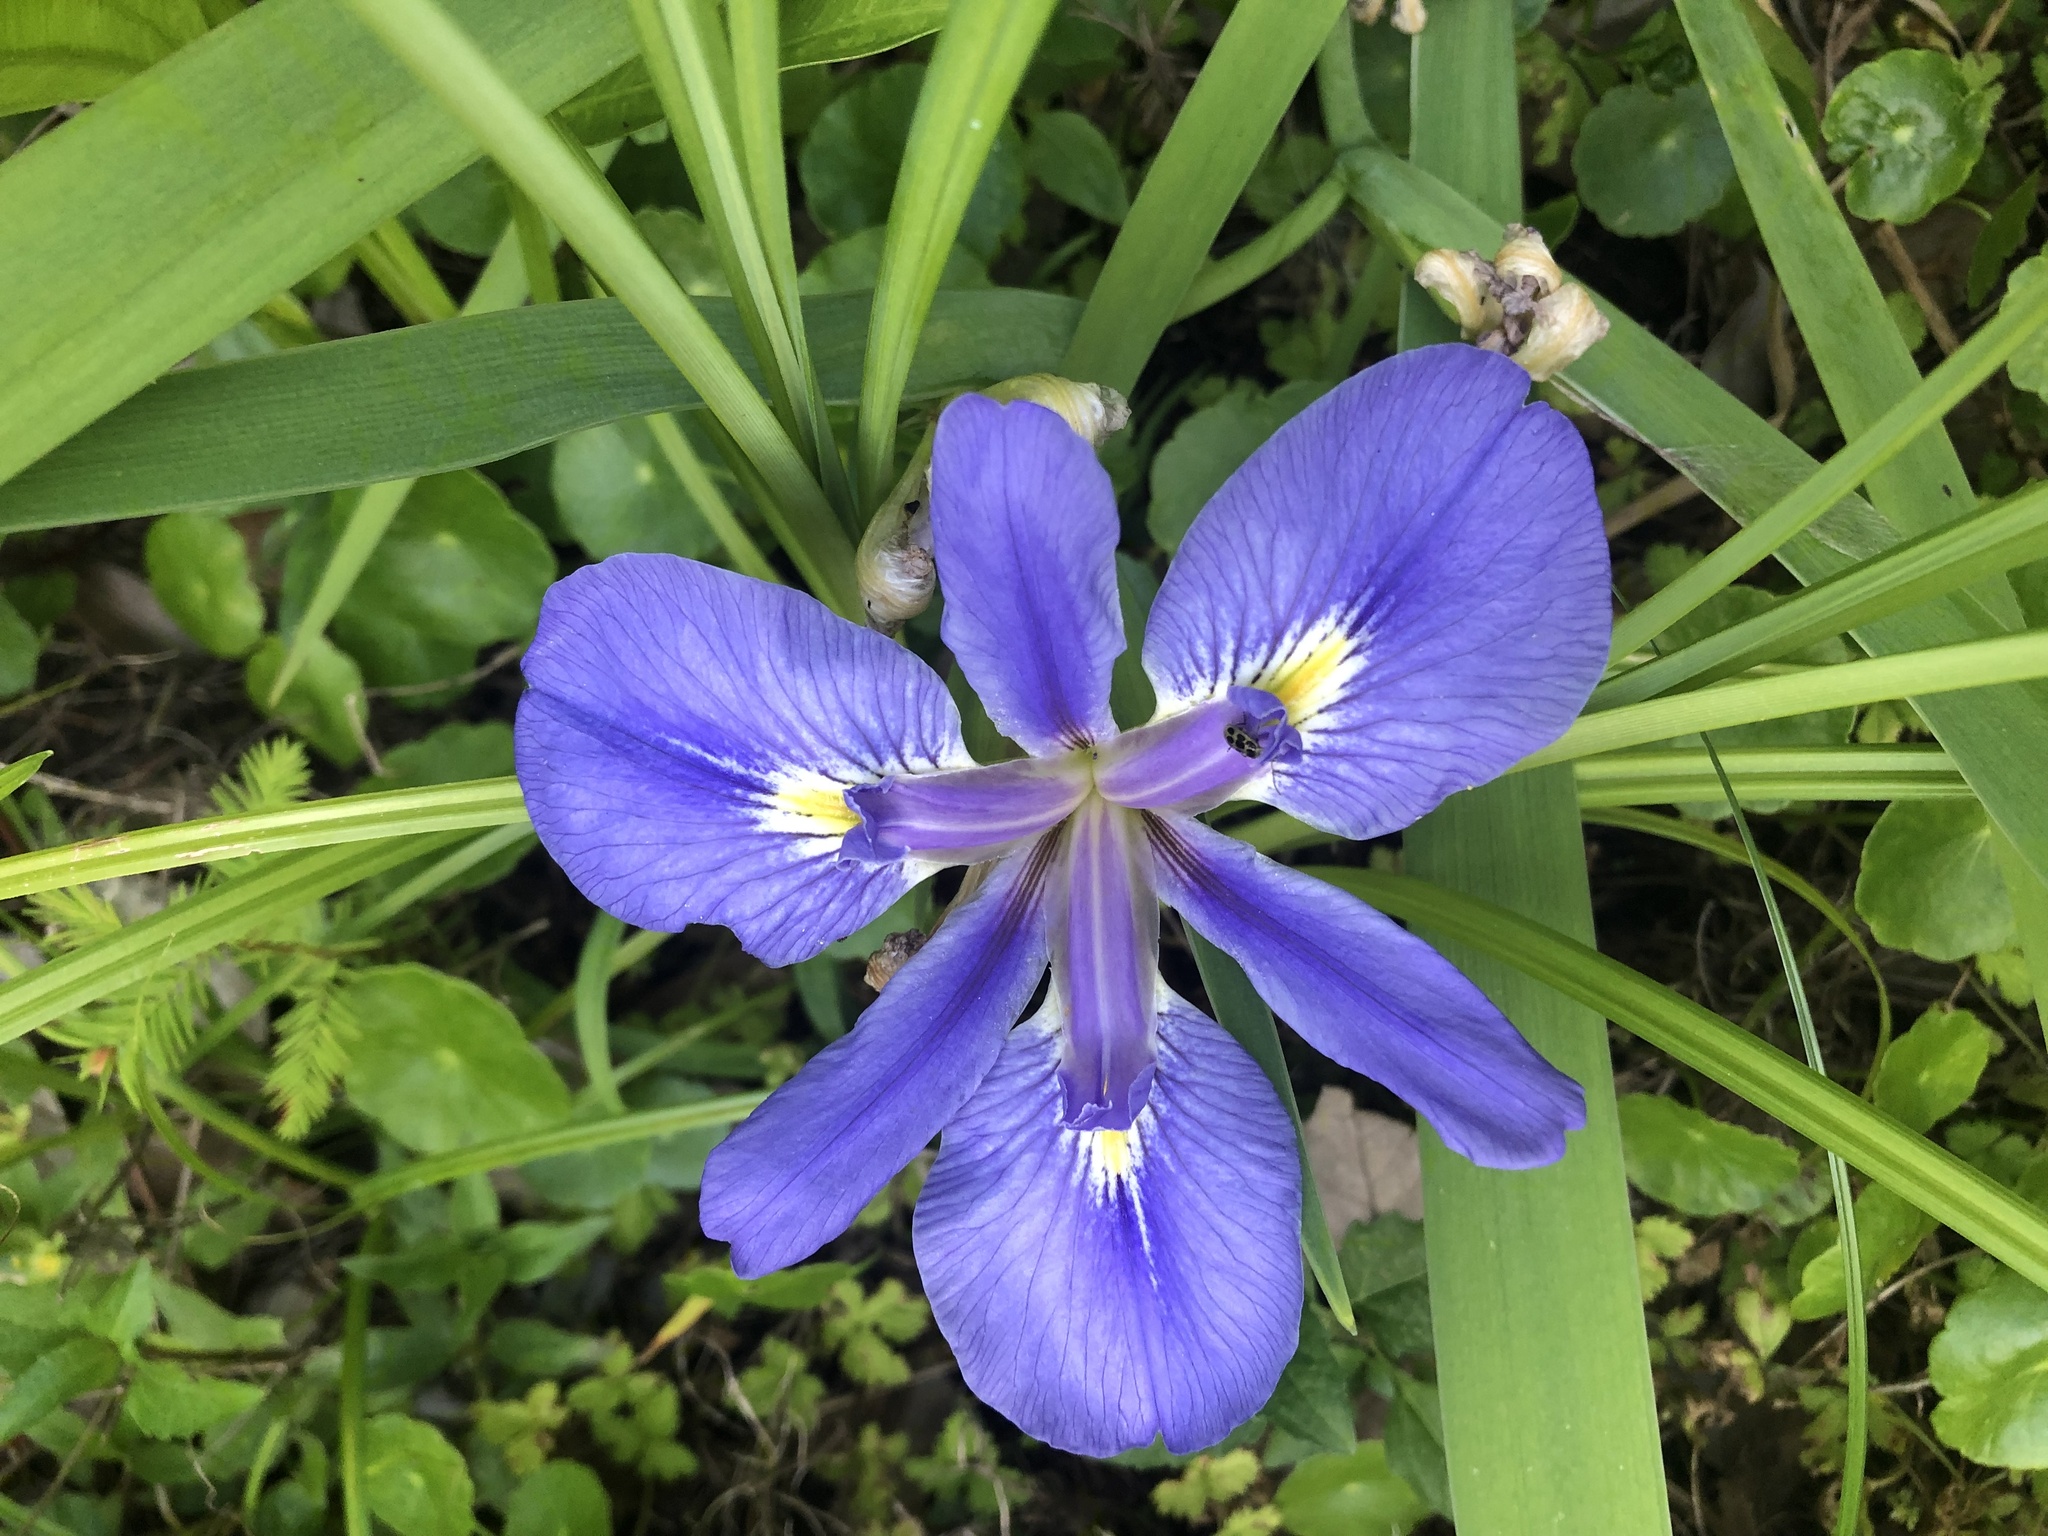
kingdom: Plantae
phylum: Tracheophyta
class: Liliopsida
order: Asparagales
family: Iridaceae
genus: Iris
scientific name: Iris brevicaulis
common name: Zigzag iris
